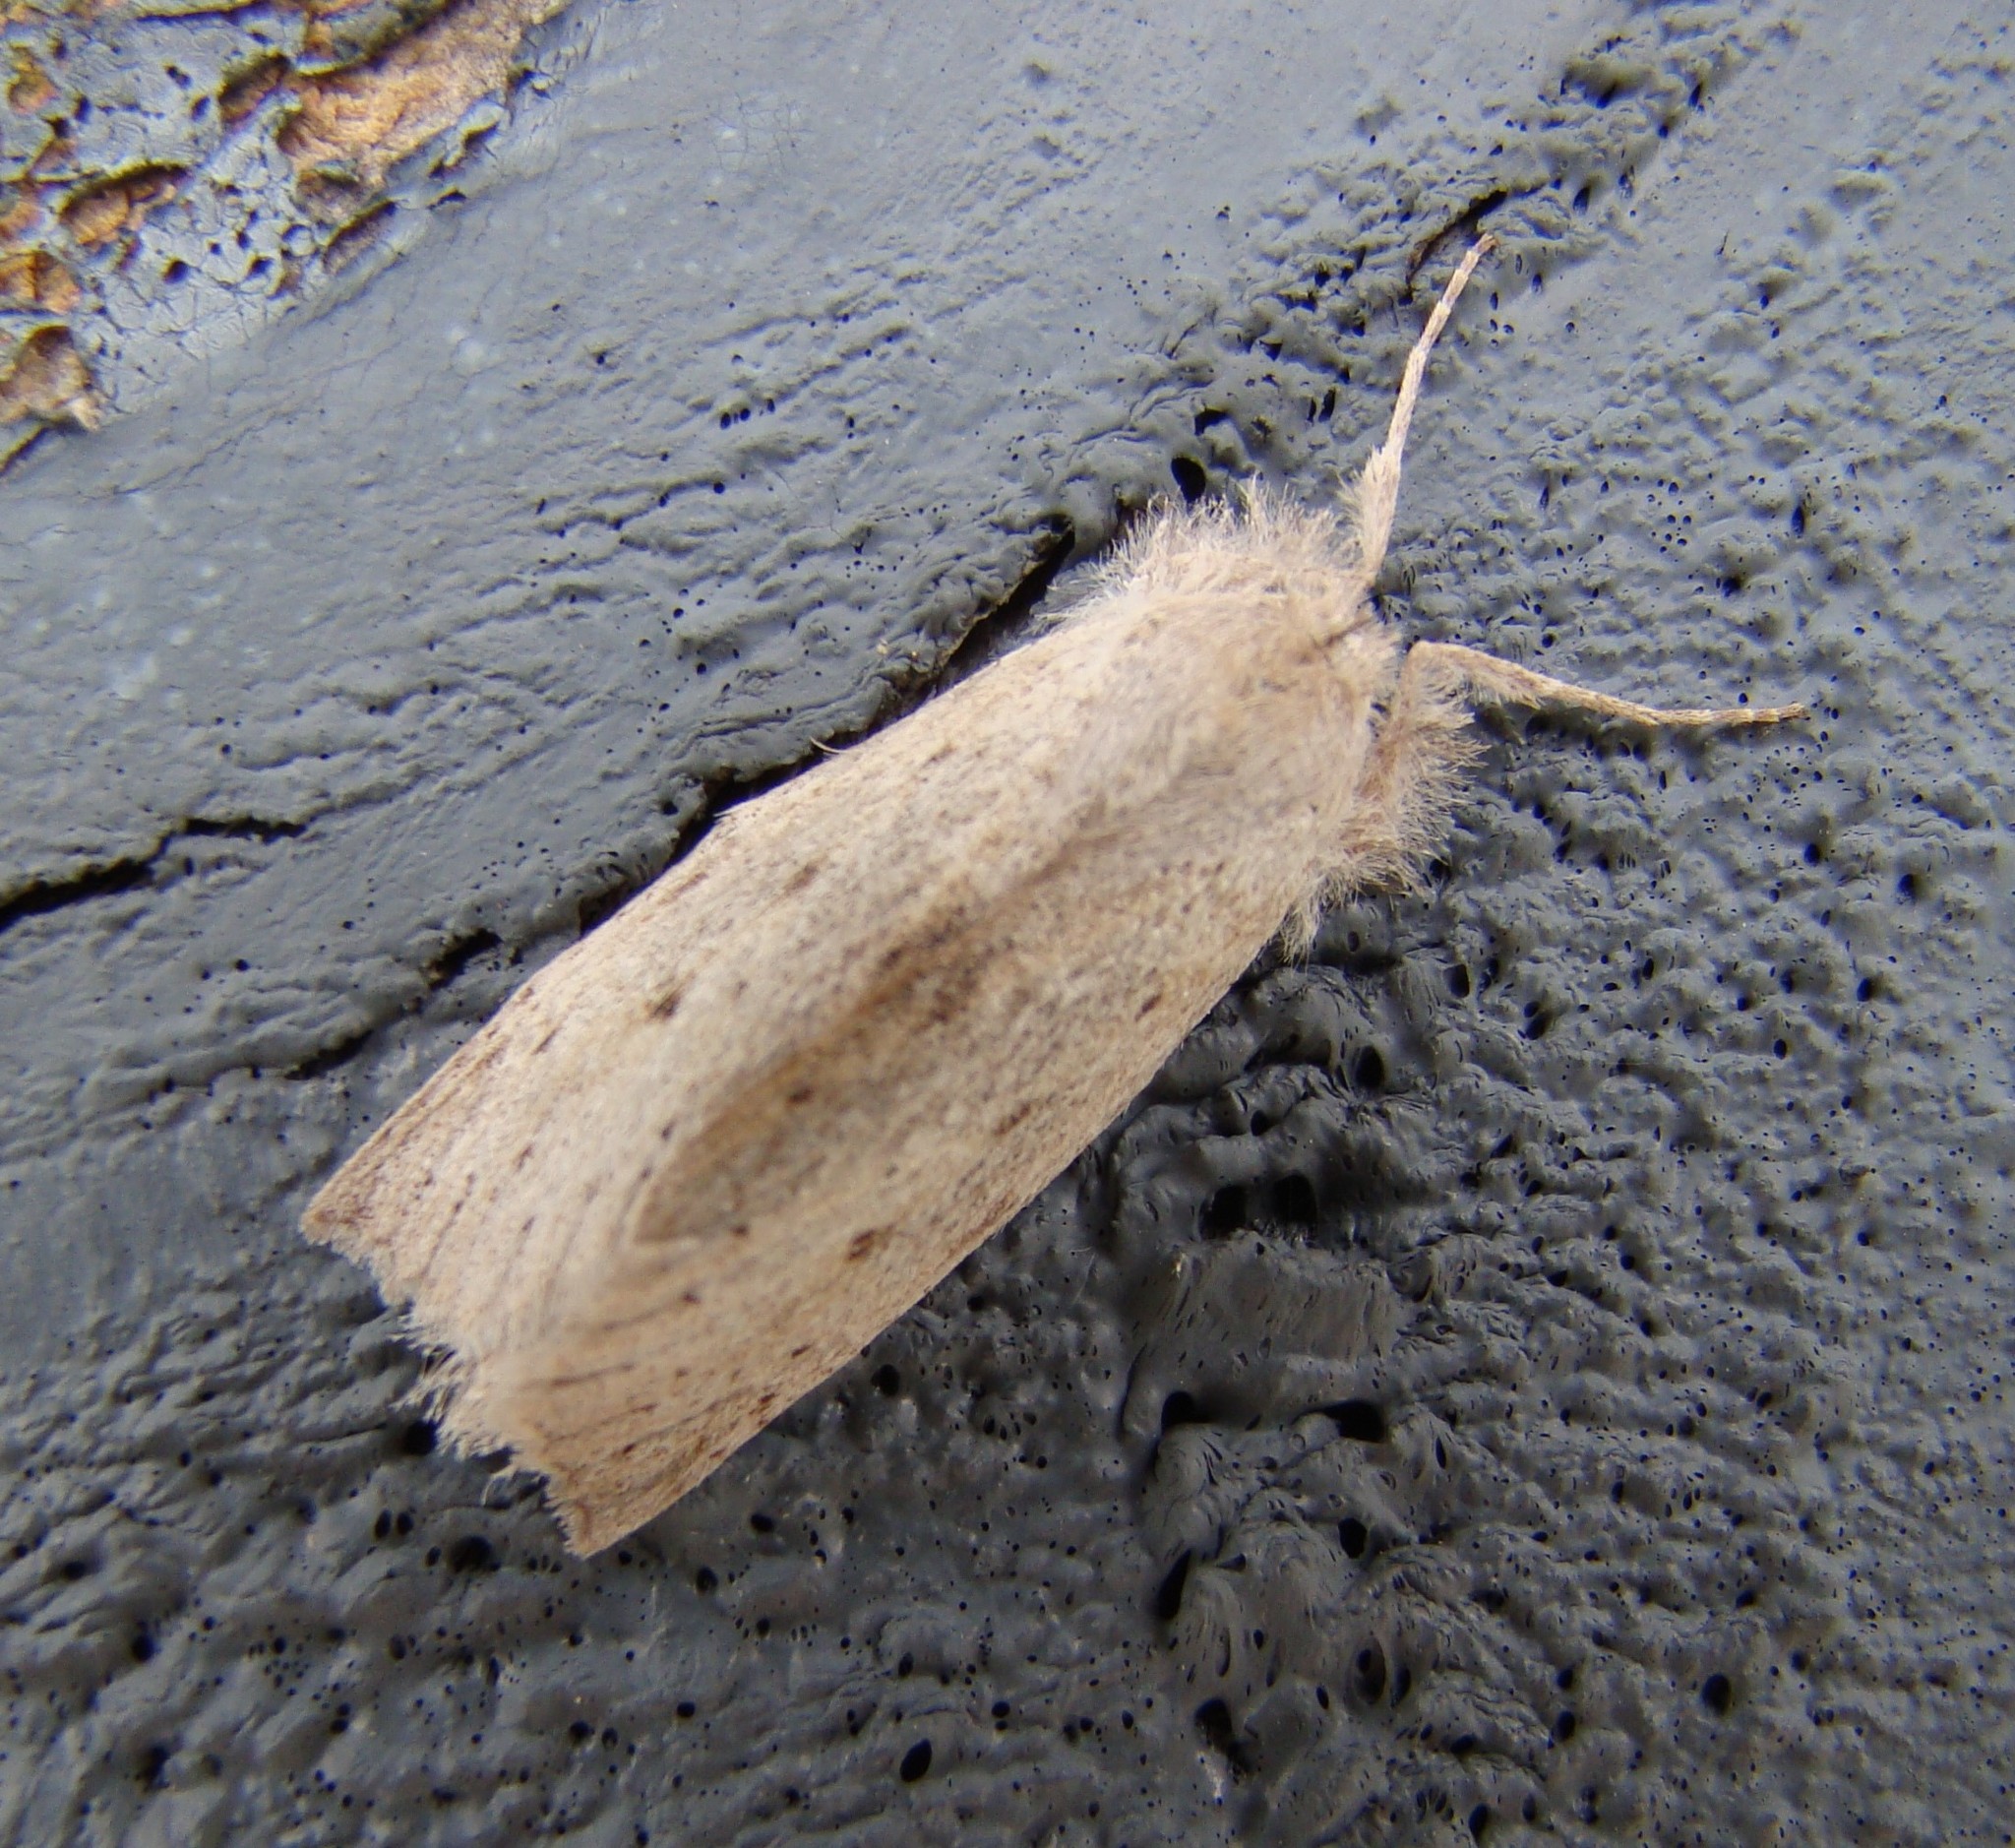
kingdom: Animalia
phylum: Arthropoda
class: Insecta
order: Lepidoptera
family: Geometridae
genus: Declana
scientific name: Declana leptomera
